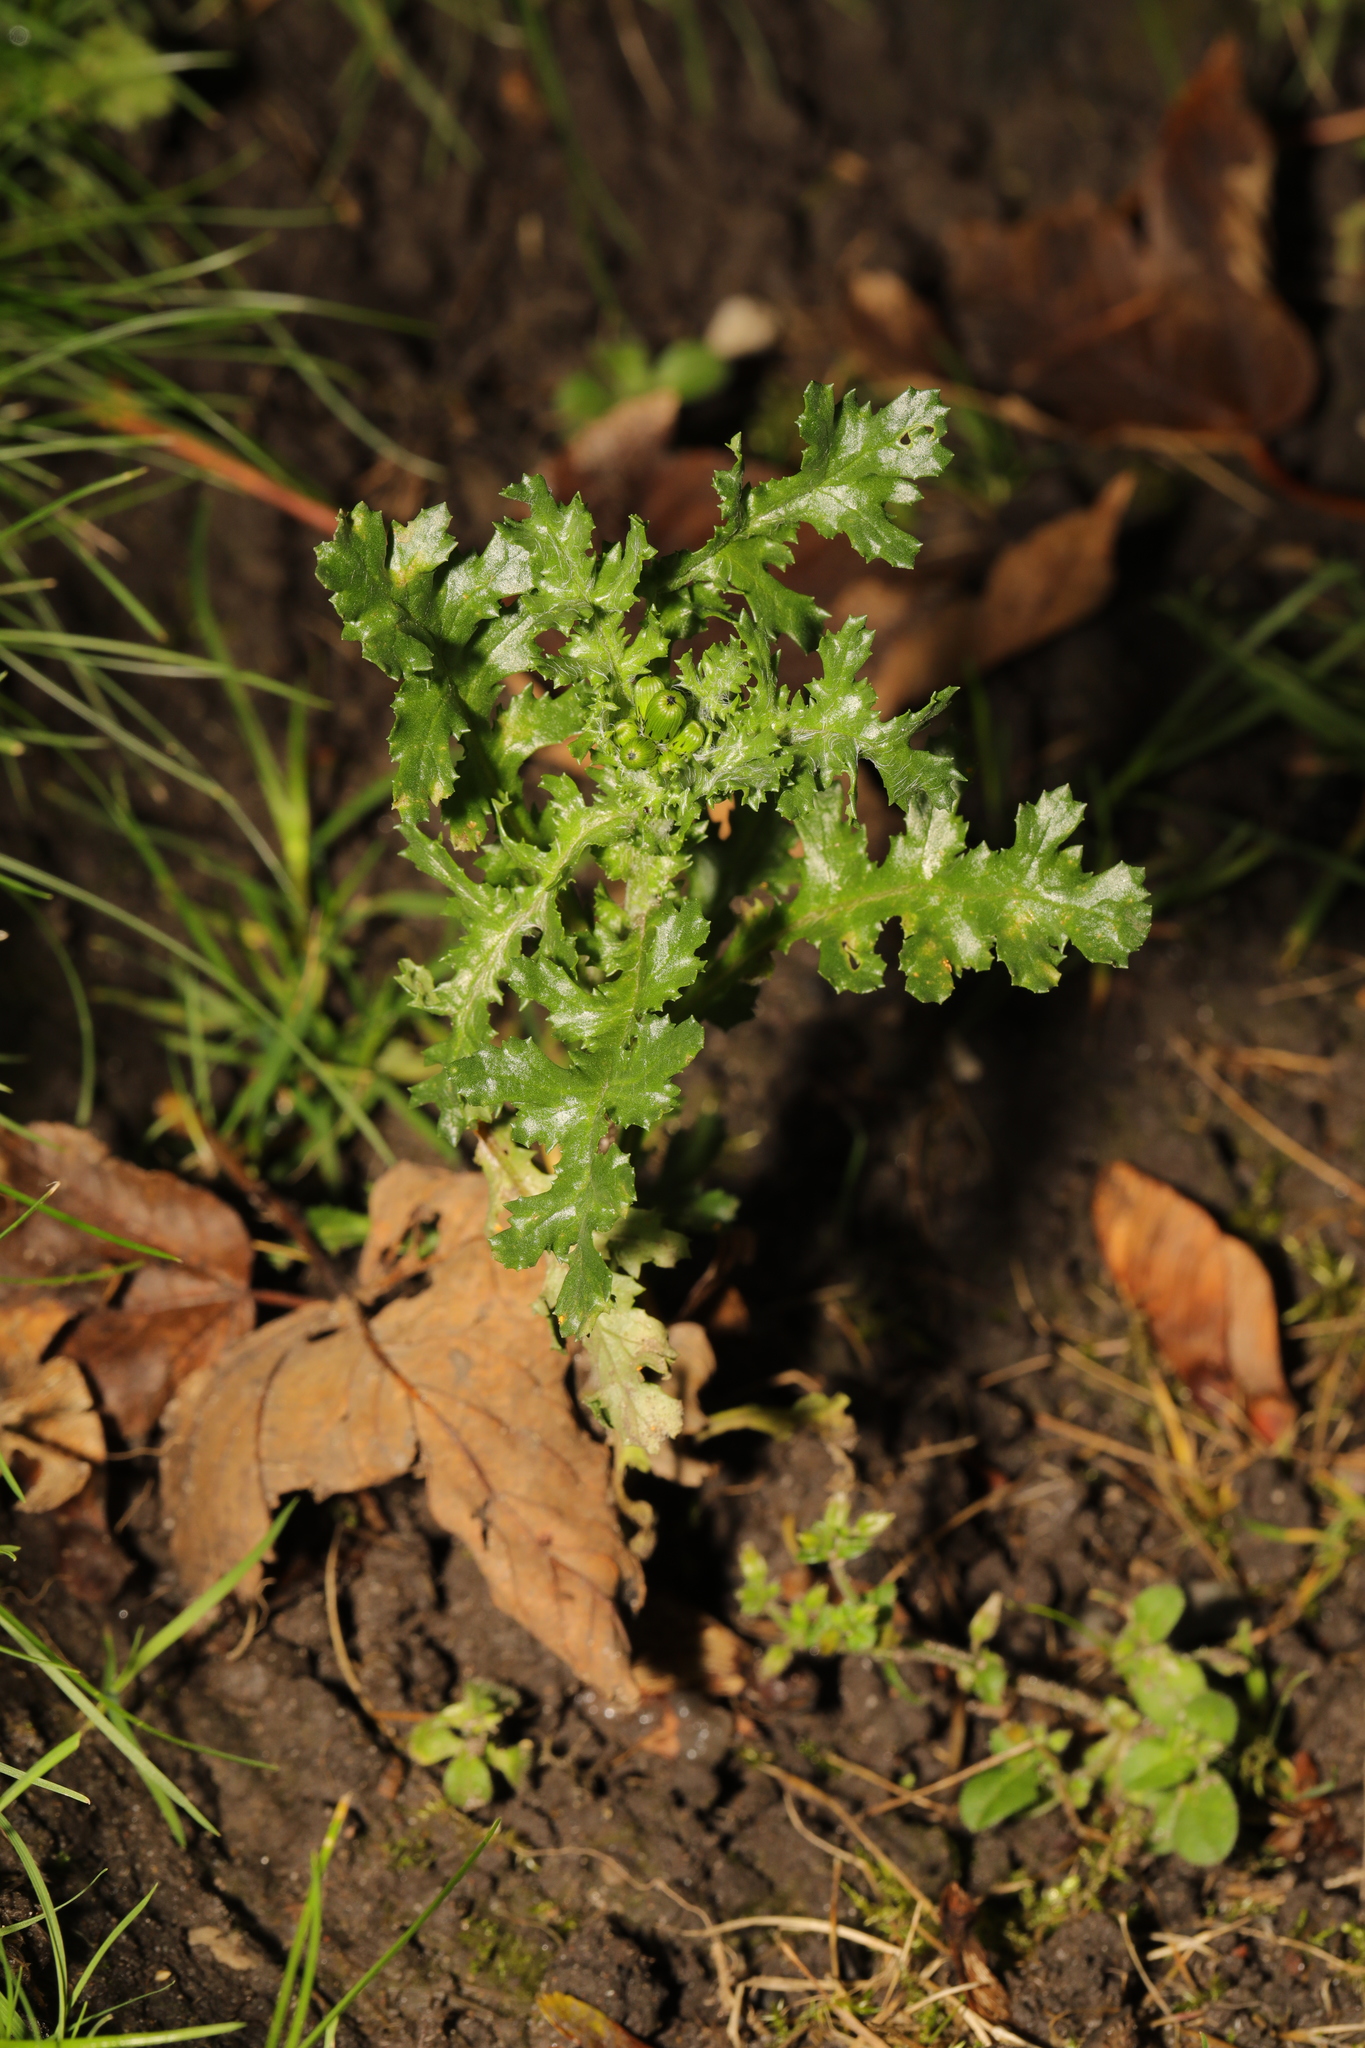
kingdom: Plantae
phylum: Tracheophyta
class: Magnoliopsida
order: Asterales
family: Asteraceae
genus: Senecio
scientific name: Senecio vulgaris
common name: Old-man-in-the-spring
